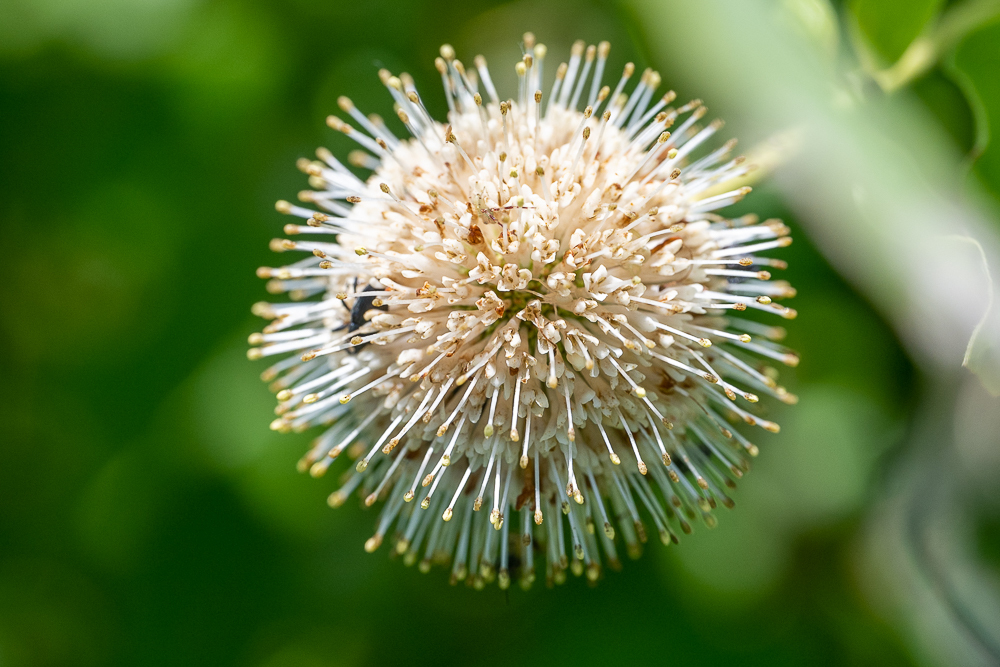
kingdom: Plantae
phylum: Tracheophyta
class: Magnoliopsida
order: Gentianales
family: Rubiaceae
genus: Cephalanthus
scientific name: Cephalanthus occidentalis
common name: Button-willow
